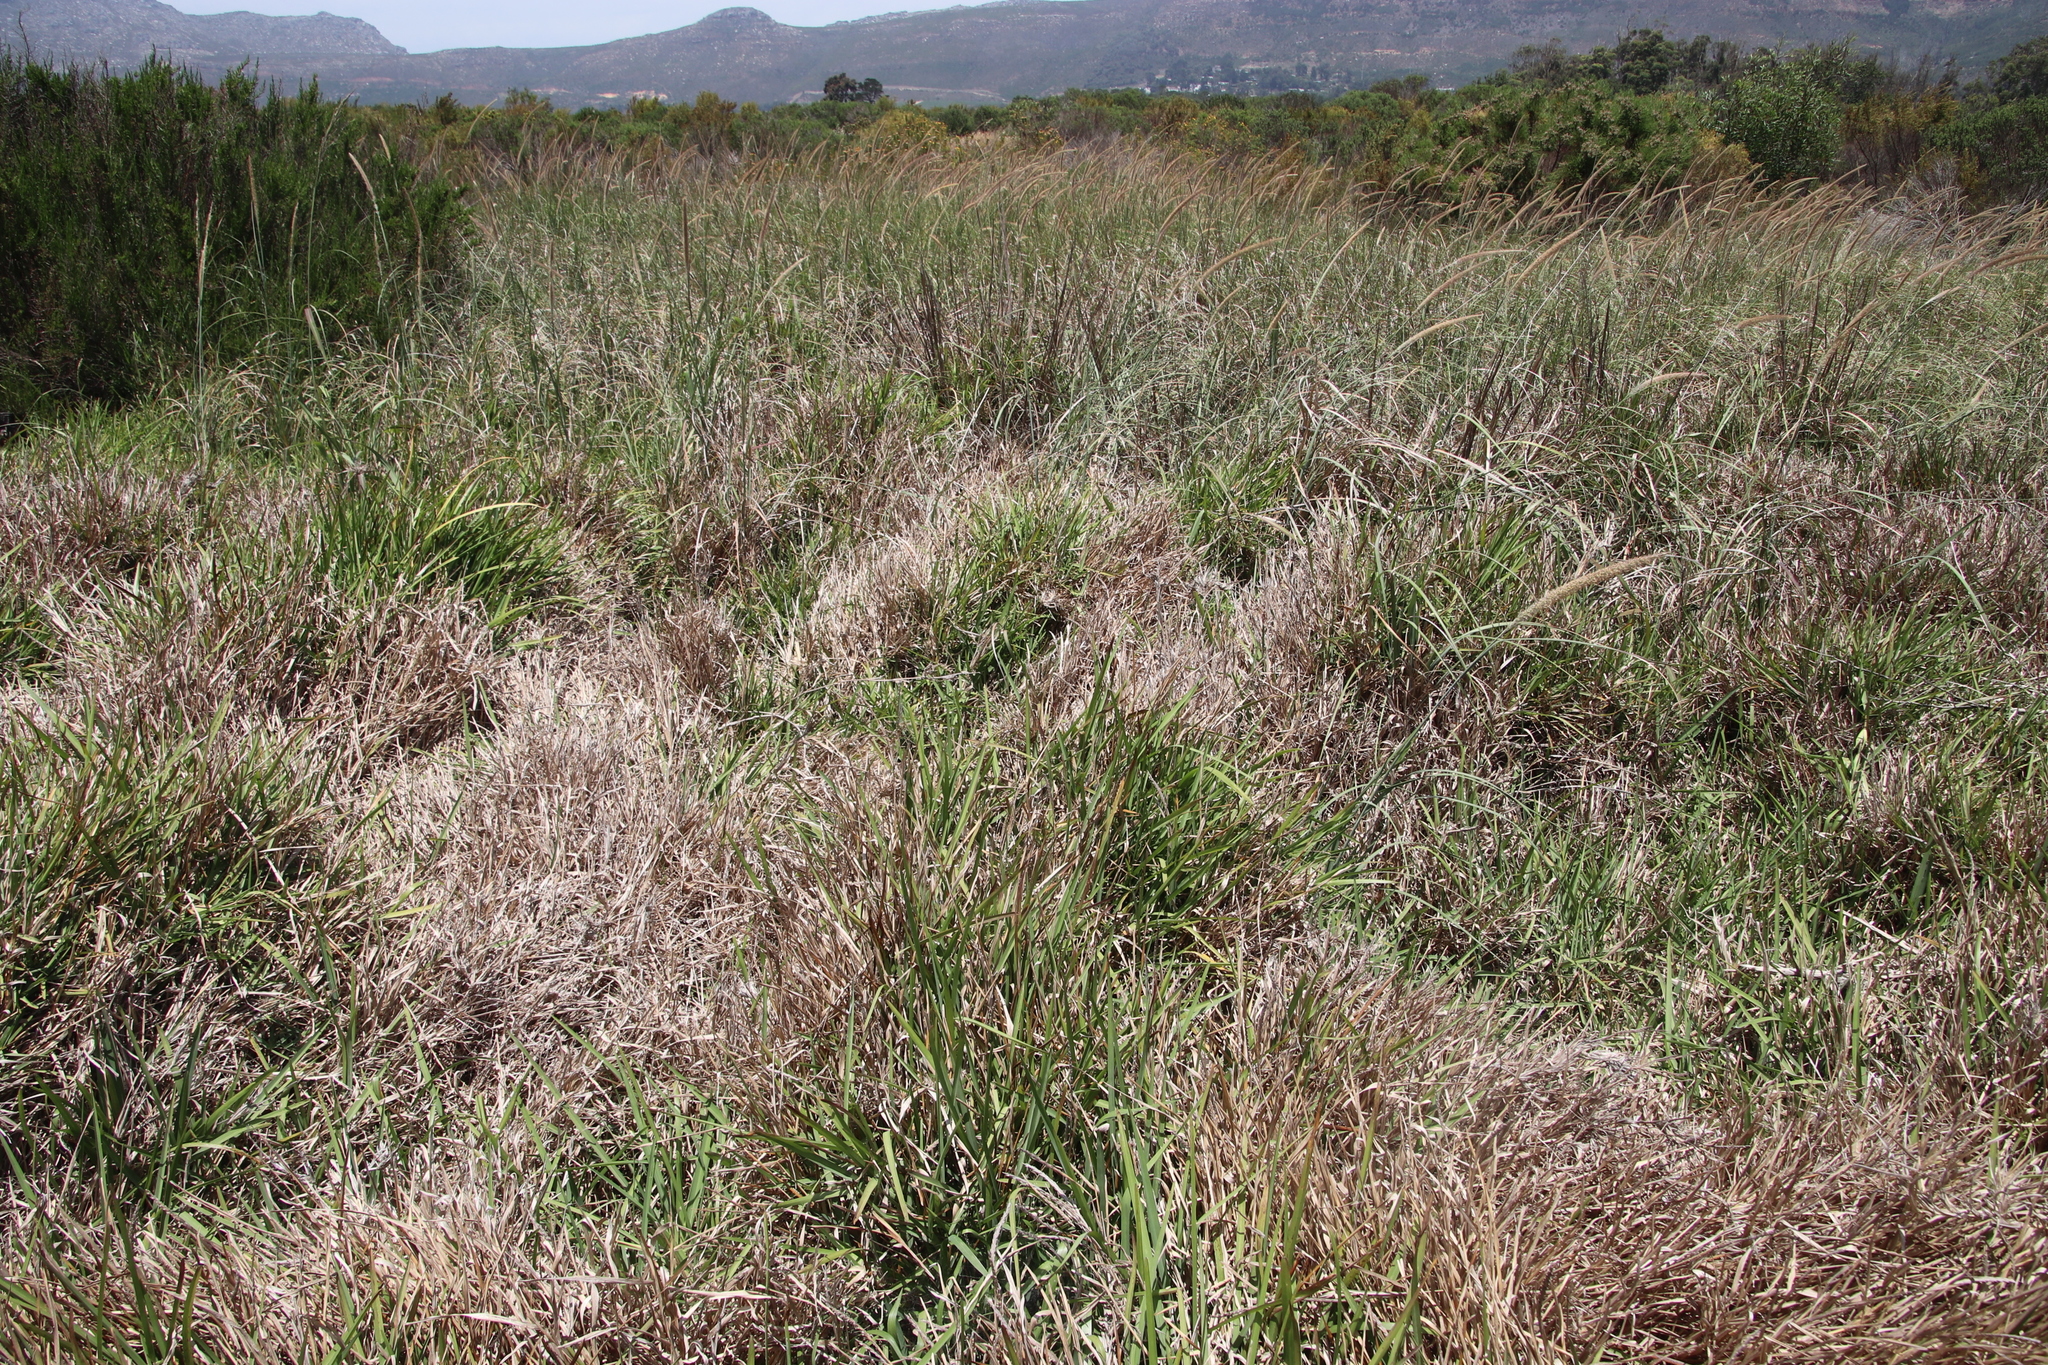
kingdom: Plantae
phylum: Tracheophyta
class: Liliopsida
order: Poales
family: Poaceae
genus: Stenotaphrum
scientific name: Stenotaphrum secundatum
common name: St. augustine grass
